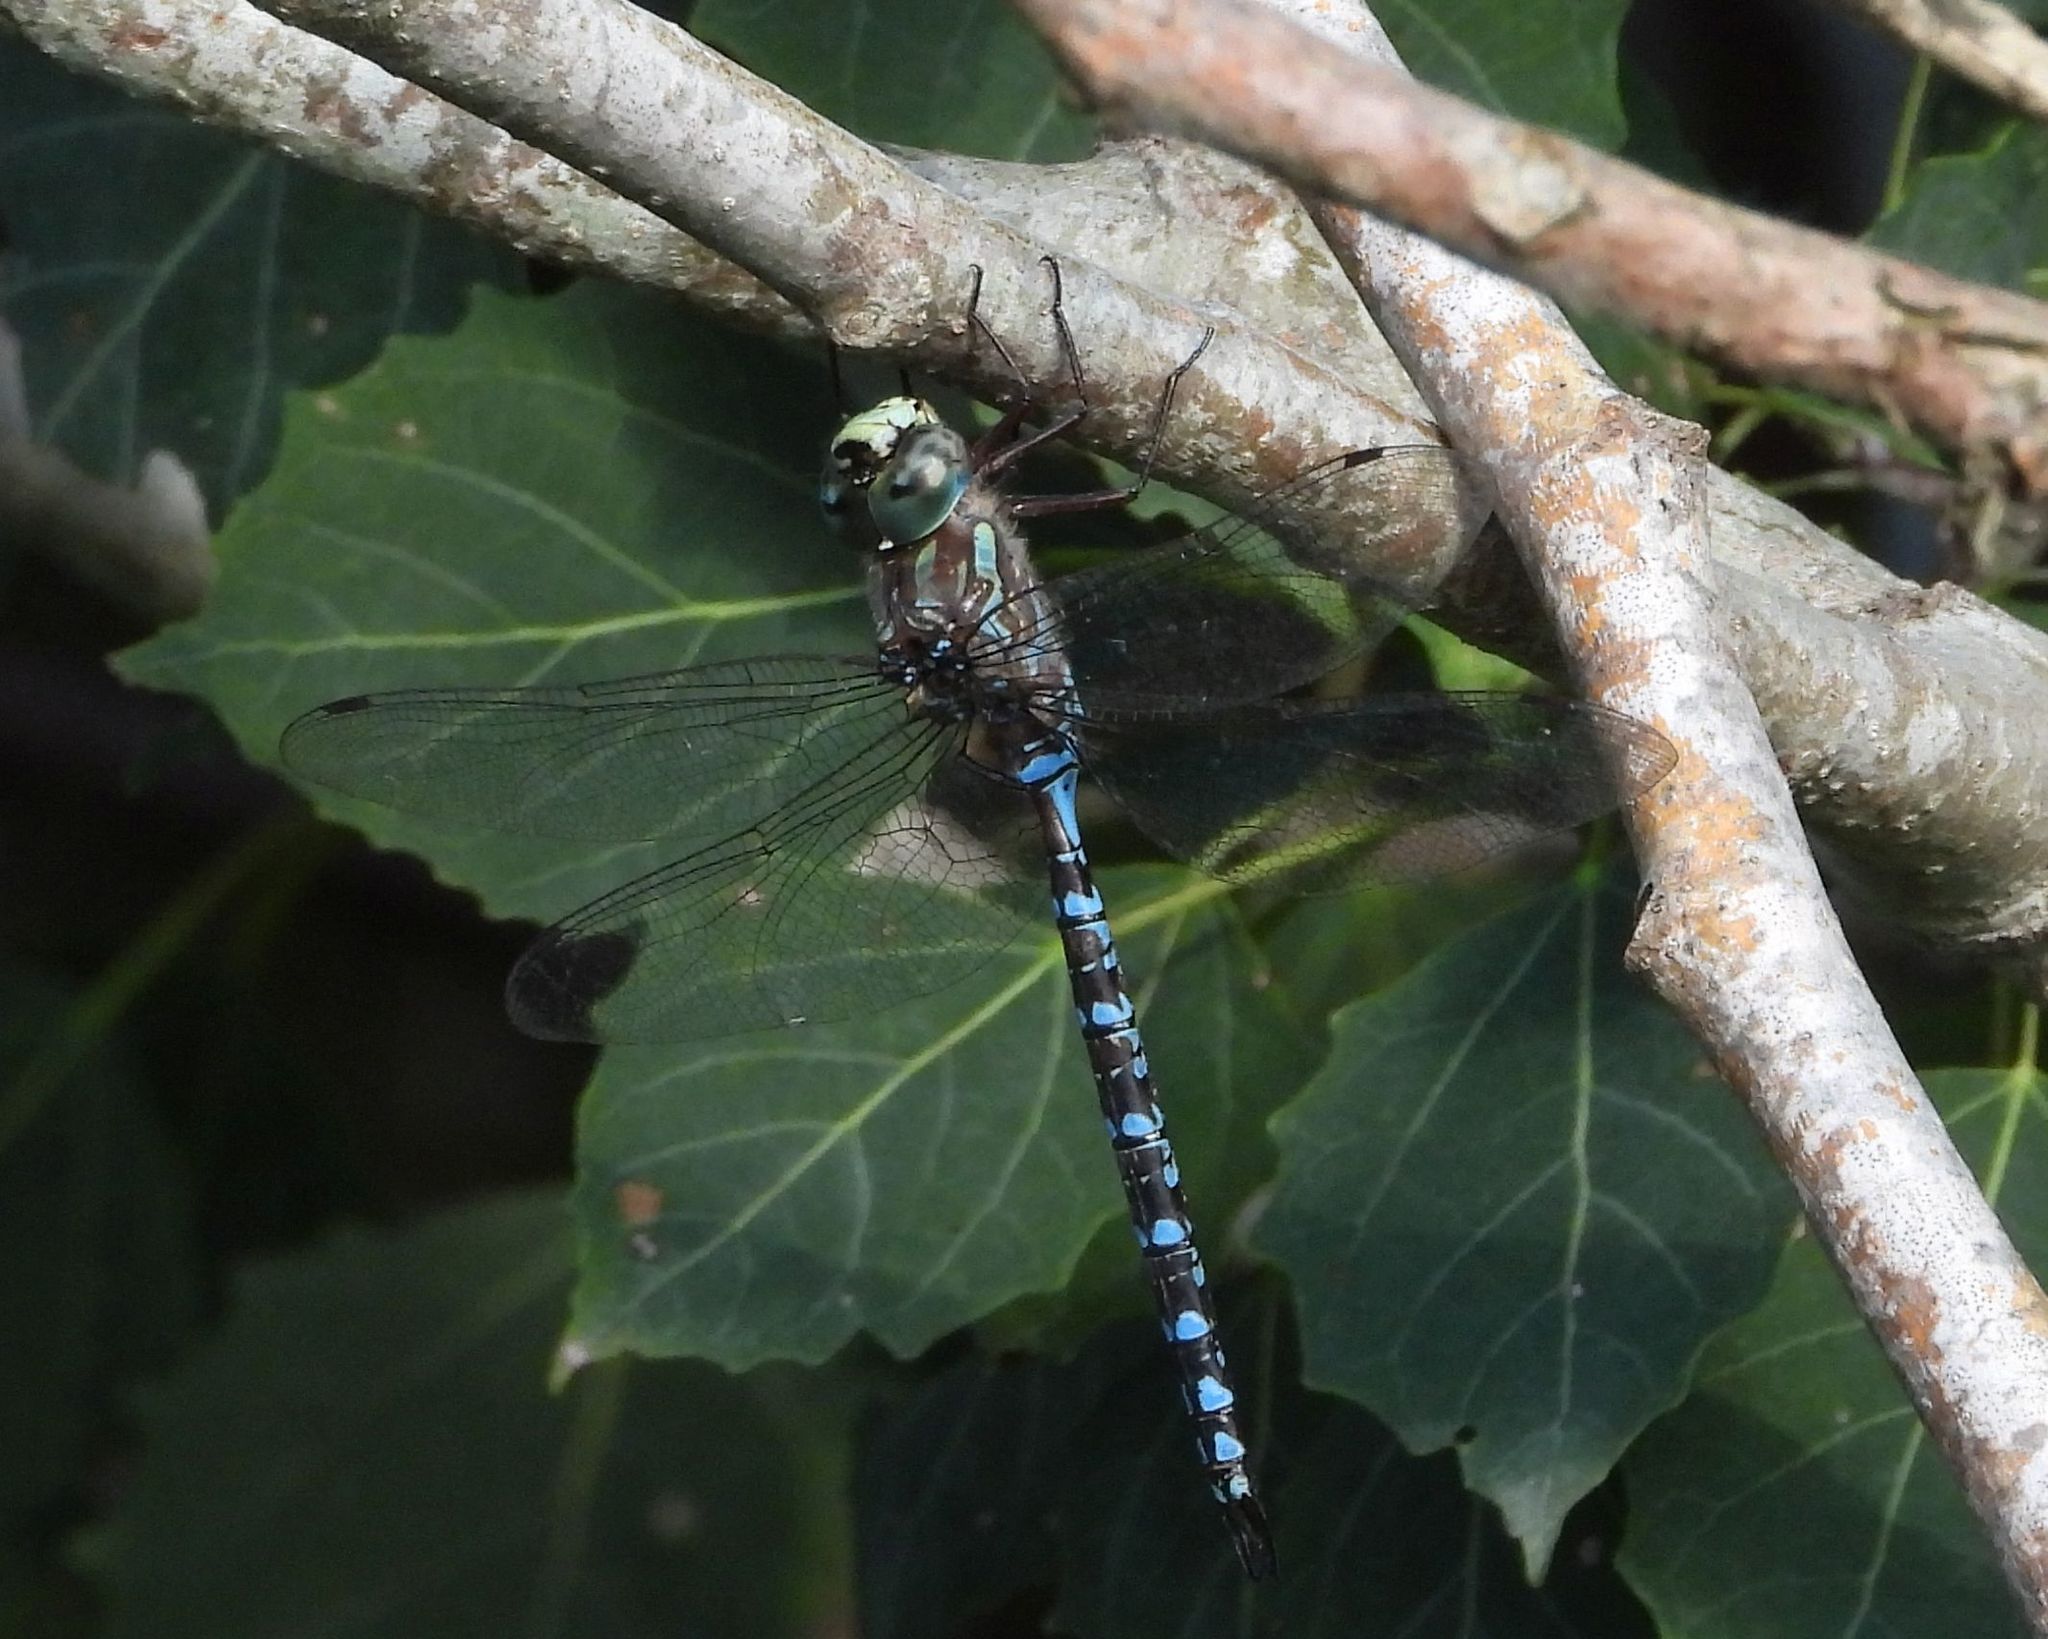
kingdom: Animalia
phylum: Arthropoda
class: Insecta
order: Odonata
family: Aeshnidae
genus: Aeshna
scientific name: Aeshna canadensis
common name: Canada darner
